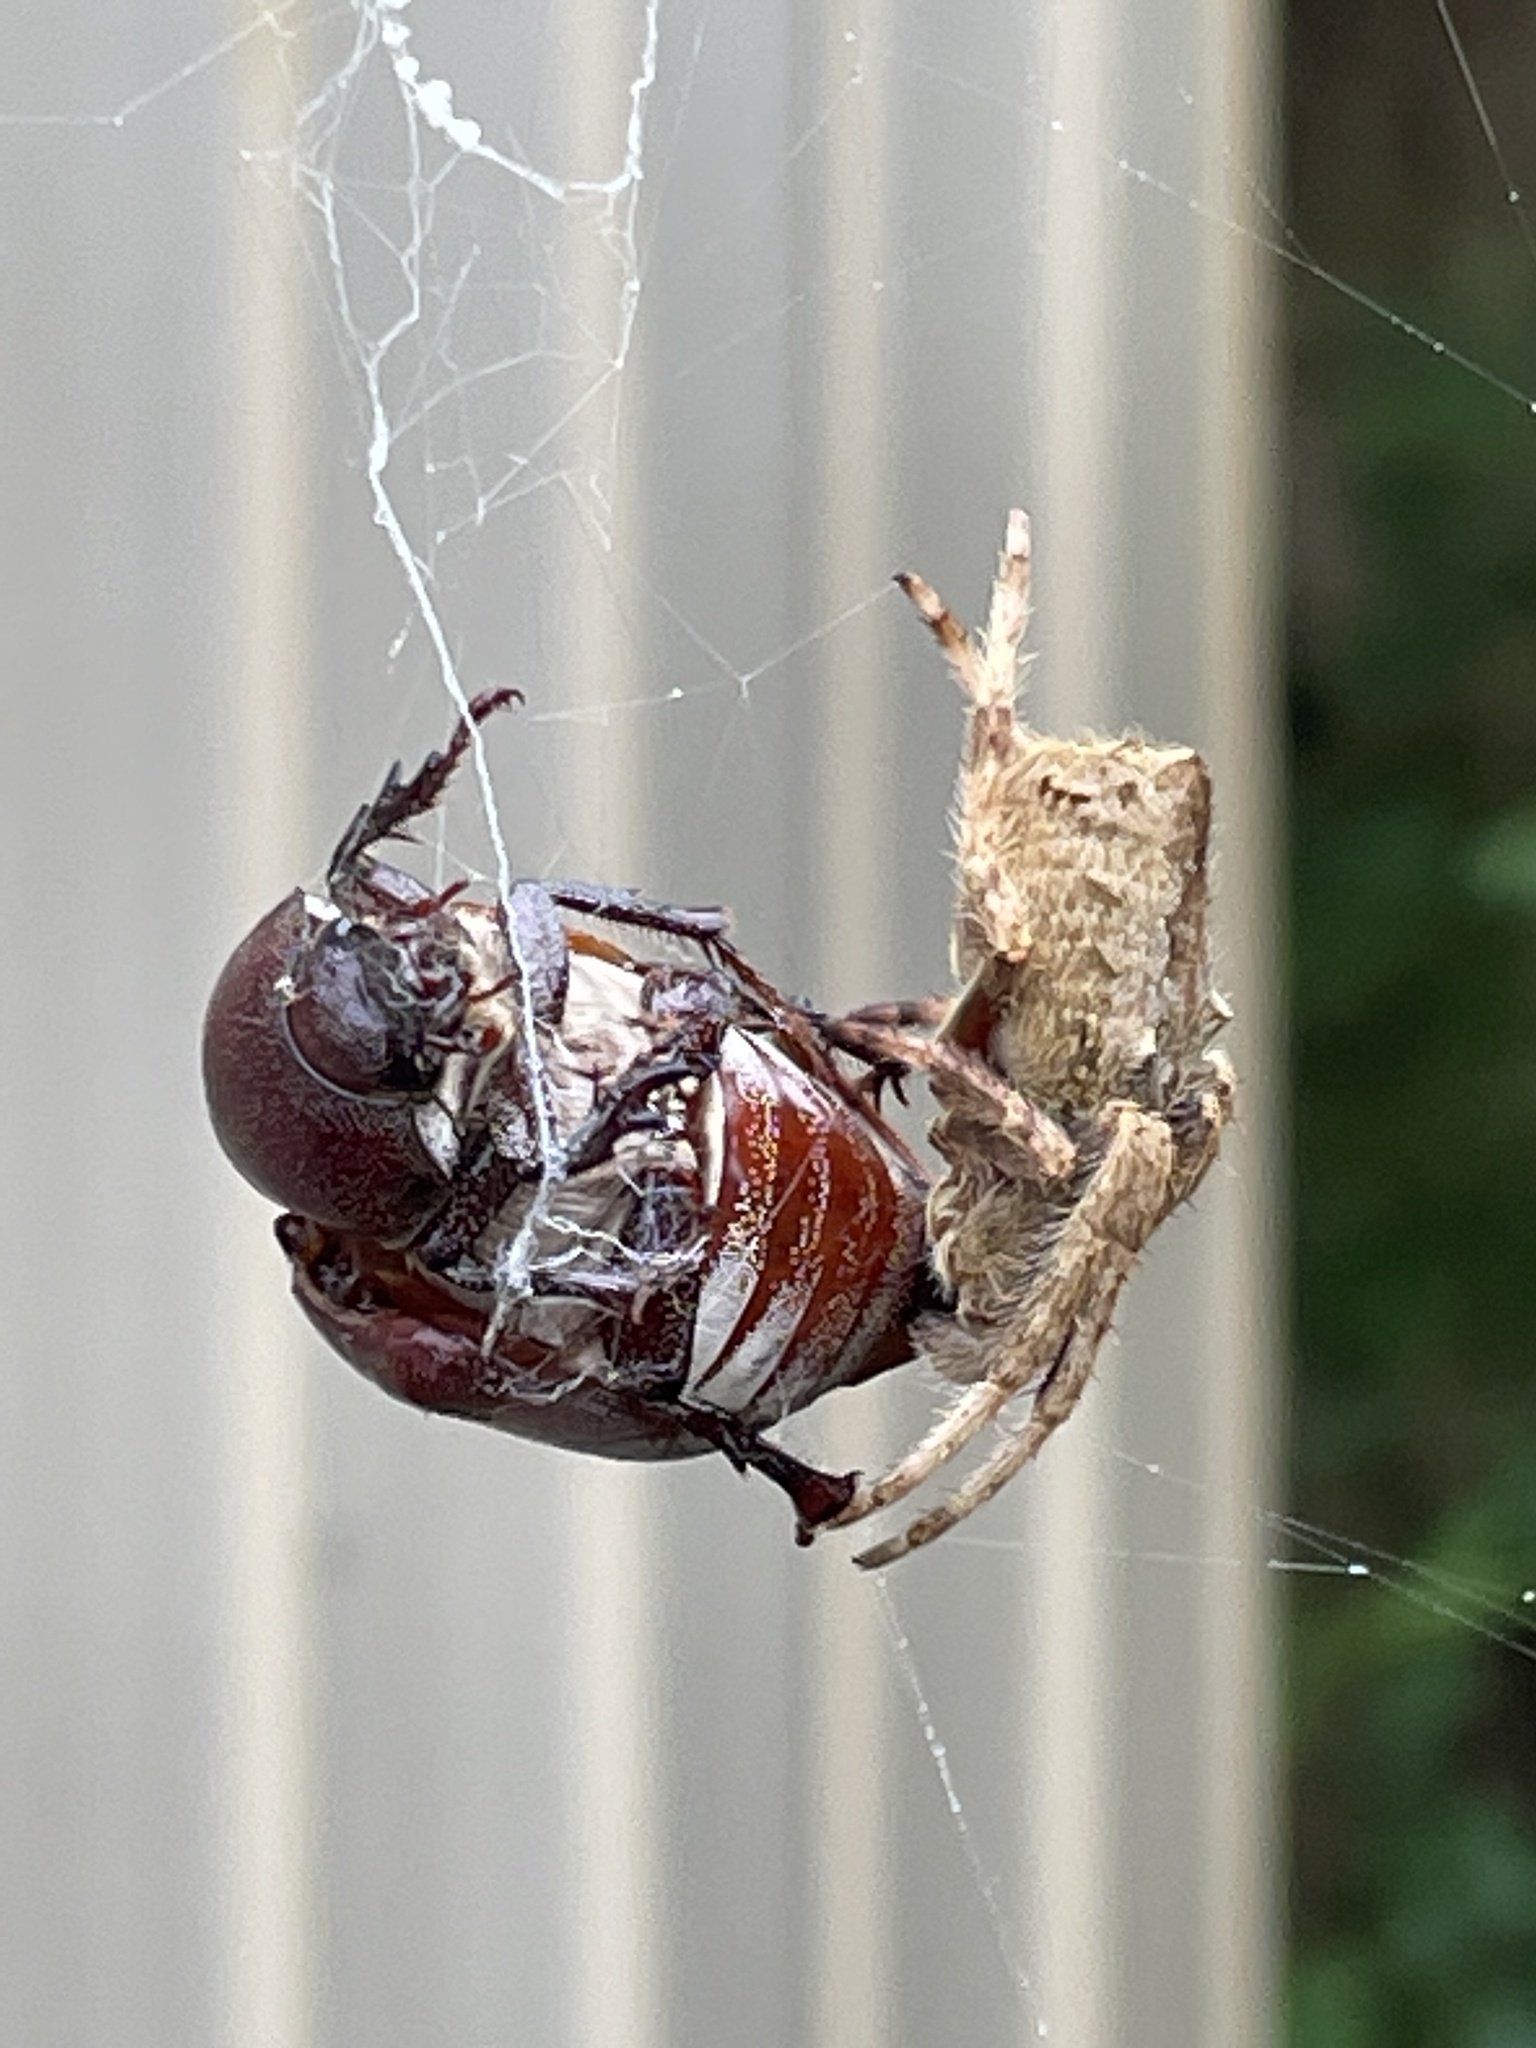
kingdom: Animalia
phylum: Arthropoda
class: Arachnida
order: Araneae
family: Araneidae
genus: Hortophora
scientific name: Hortophora
